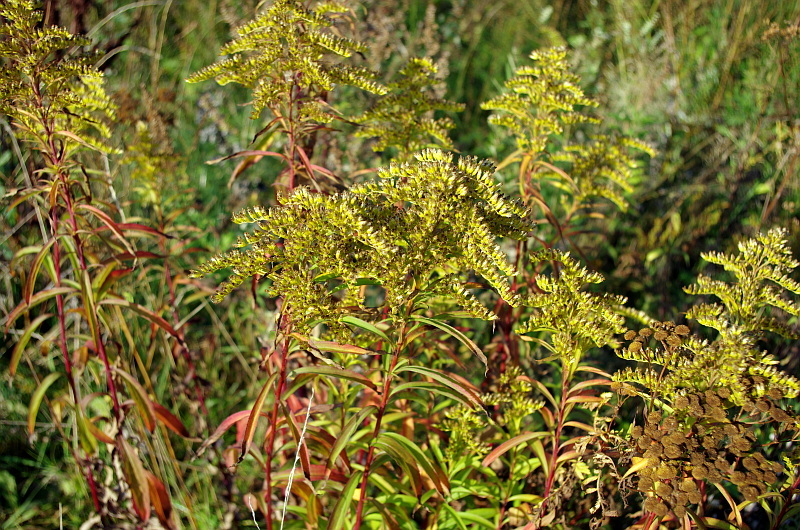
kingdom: Plantae
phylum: Tracheophyta
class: Magnoliopsida
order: Asterales
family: Asteraceae
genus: Solidago
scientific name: Solidago canadensis
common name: Canada goldenrod
